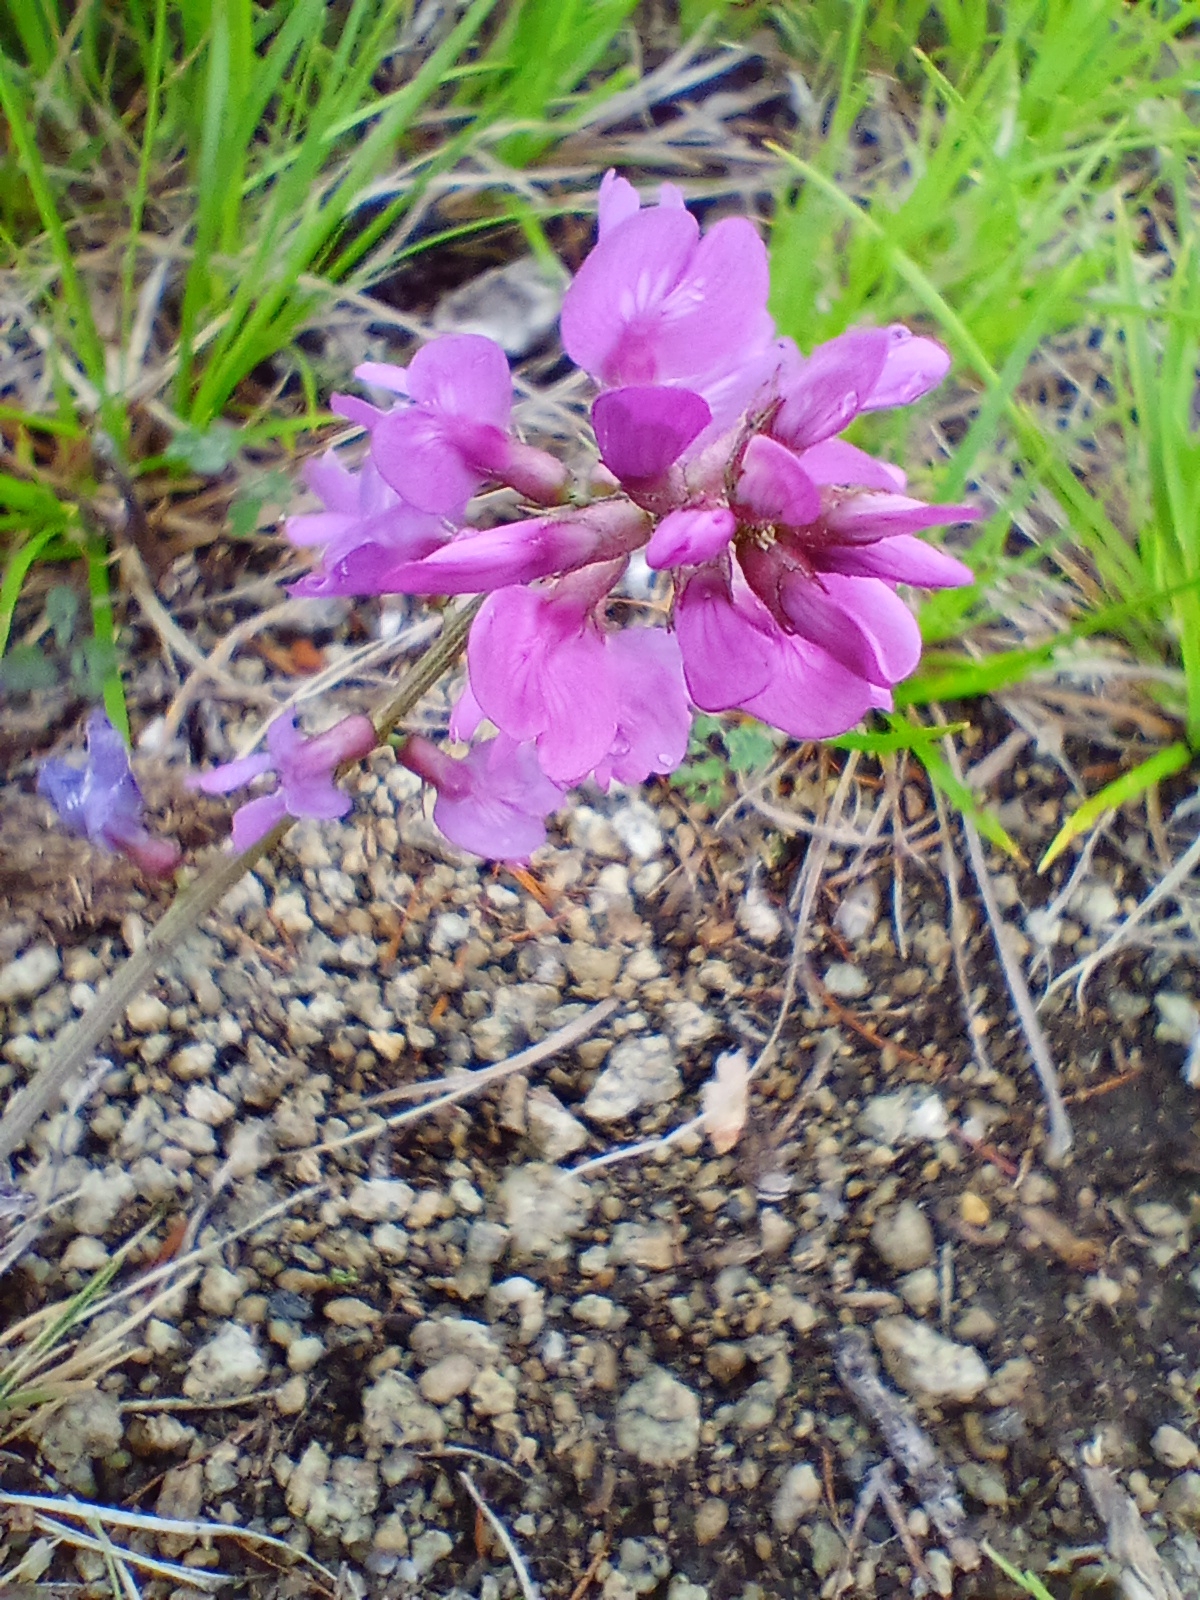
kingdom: Plantae
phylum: Tracheophyta
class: Magnoliopsida
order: Fabales
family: Fabaceae
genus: Astragalus
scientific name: Astragalus versicolor
